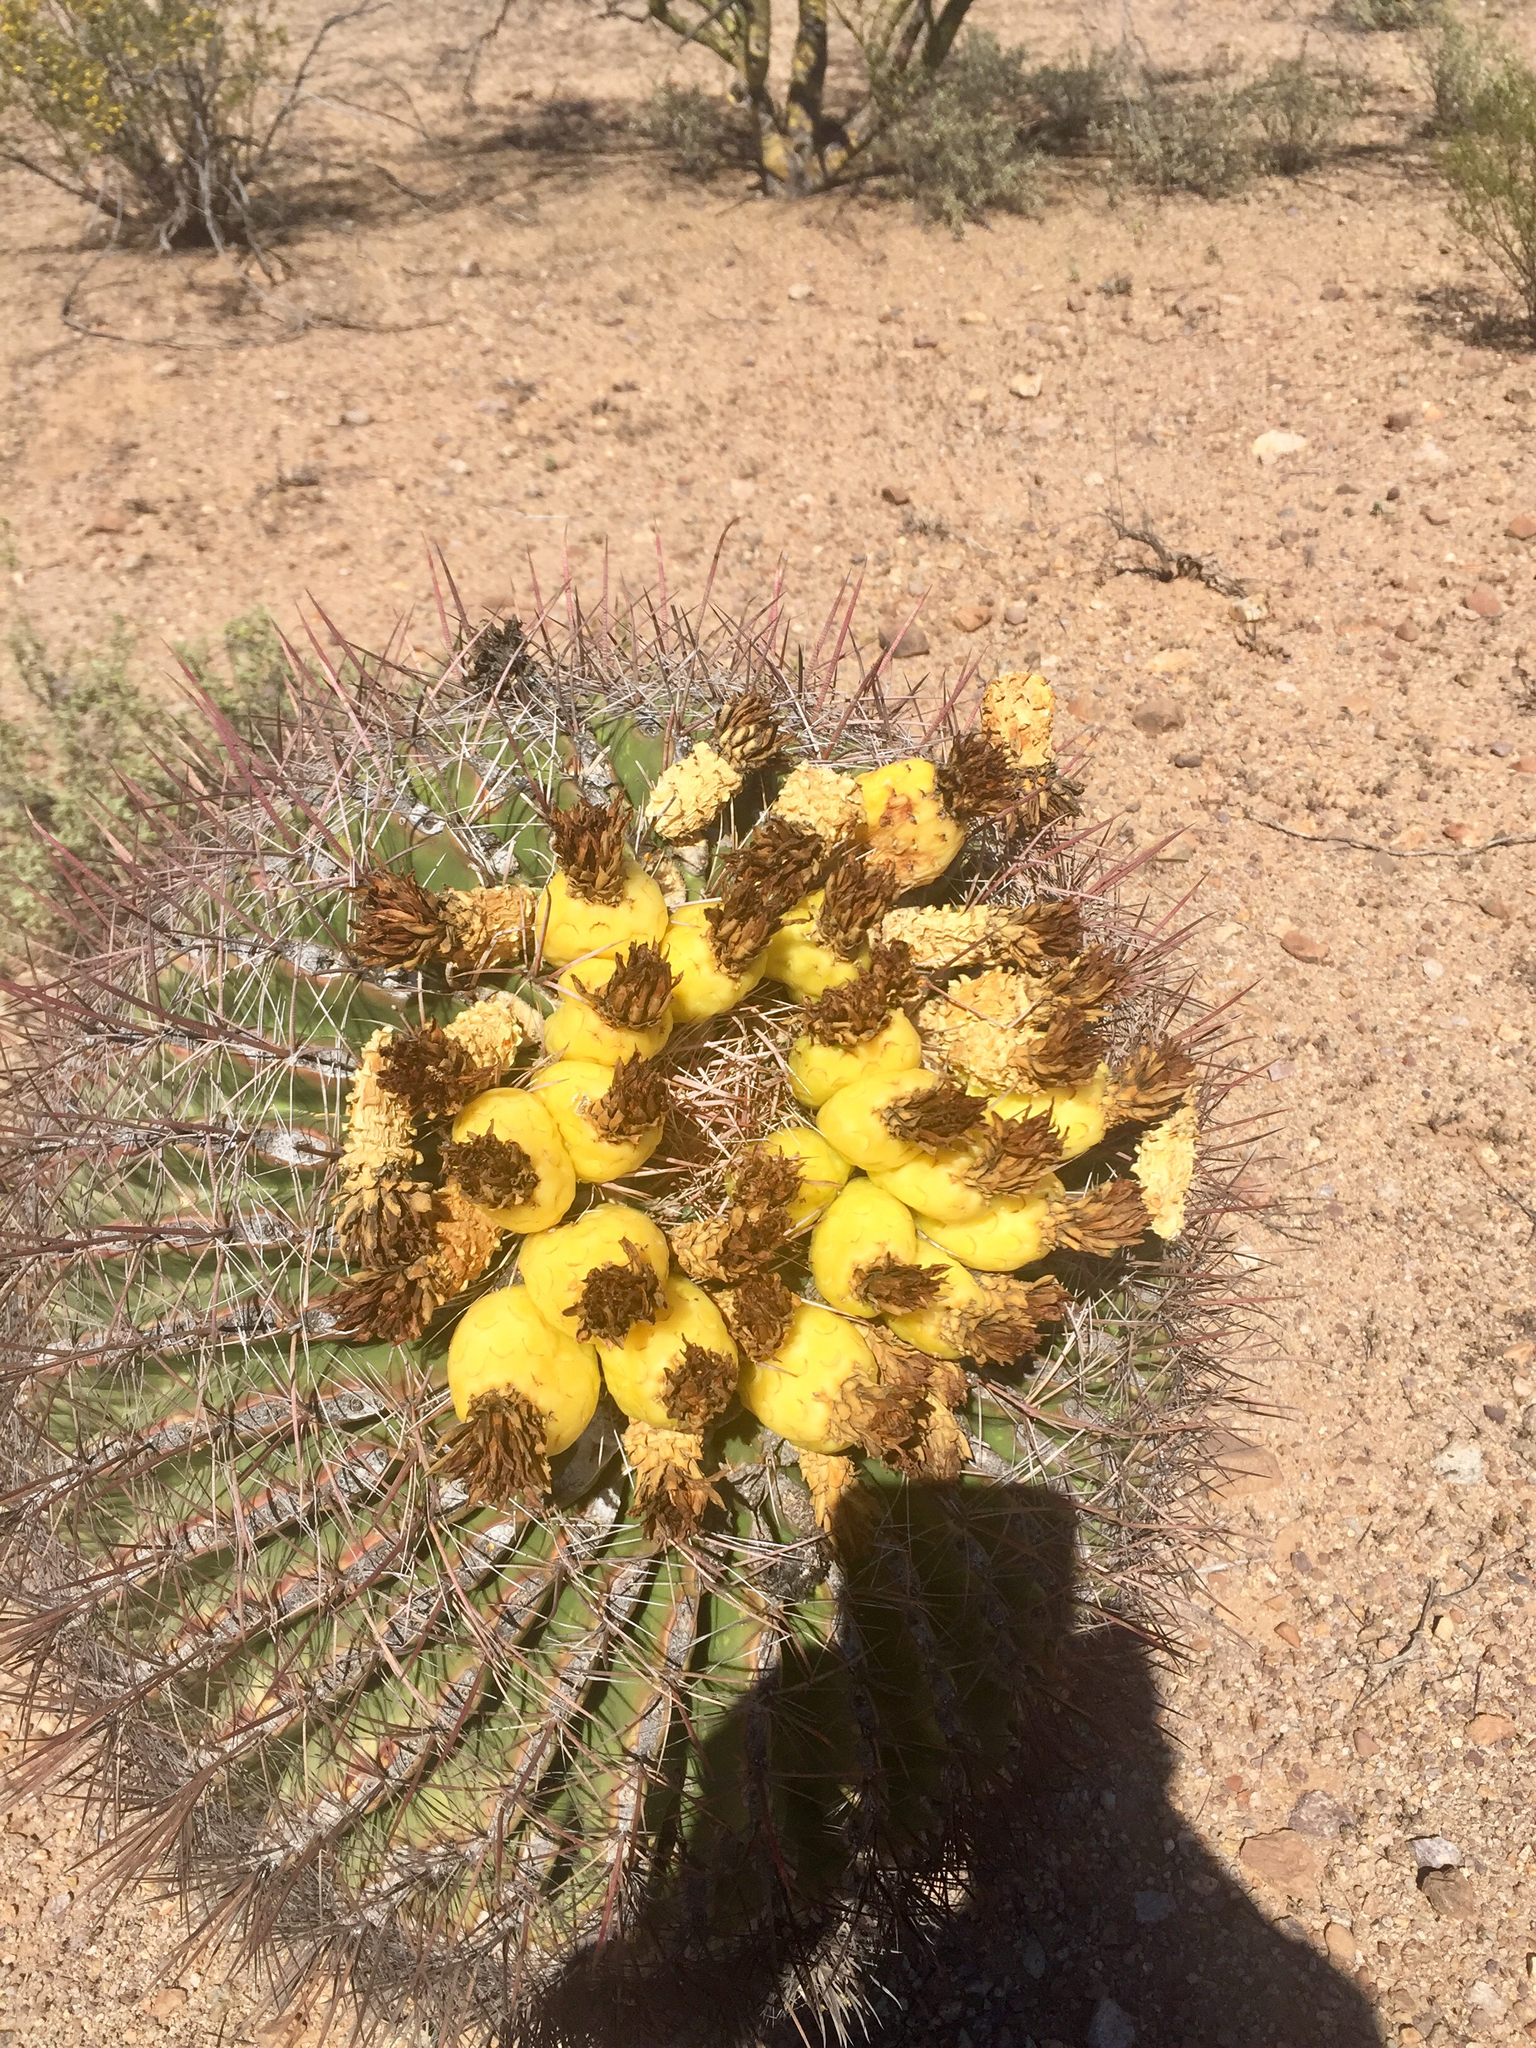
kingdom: Plantae
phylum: Tracheophyta
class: Magnoliopsida
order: Caryophyllales
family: Cactaceae
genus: Ferocactus
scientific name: Ferocactus wislizeni
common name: Candy barrel cactus
